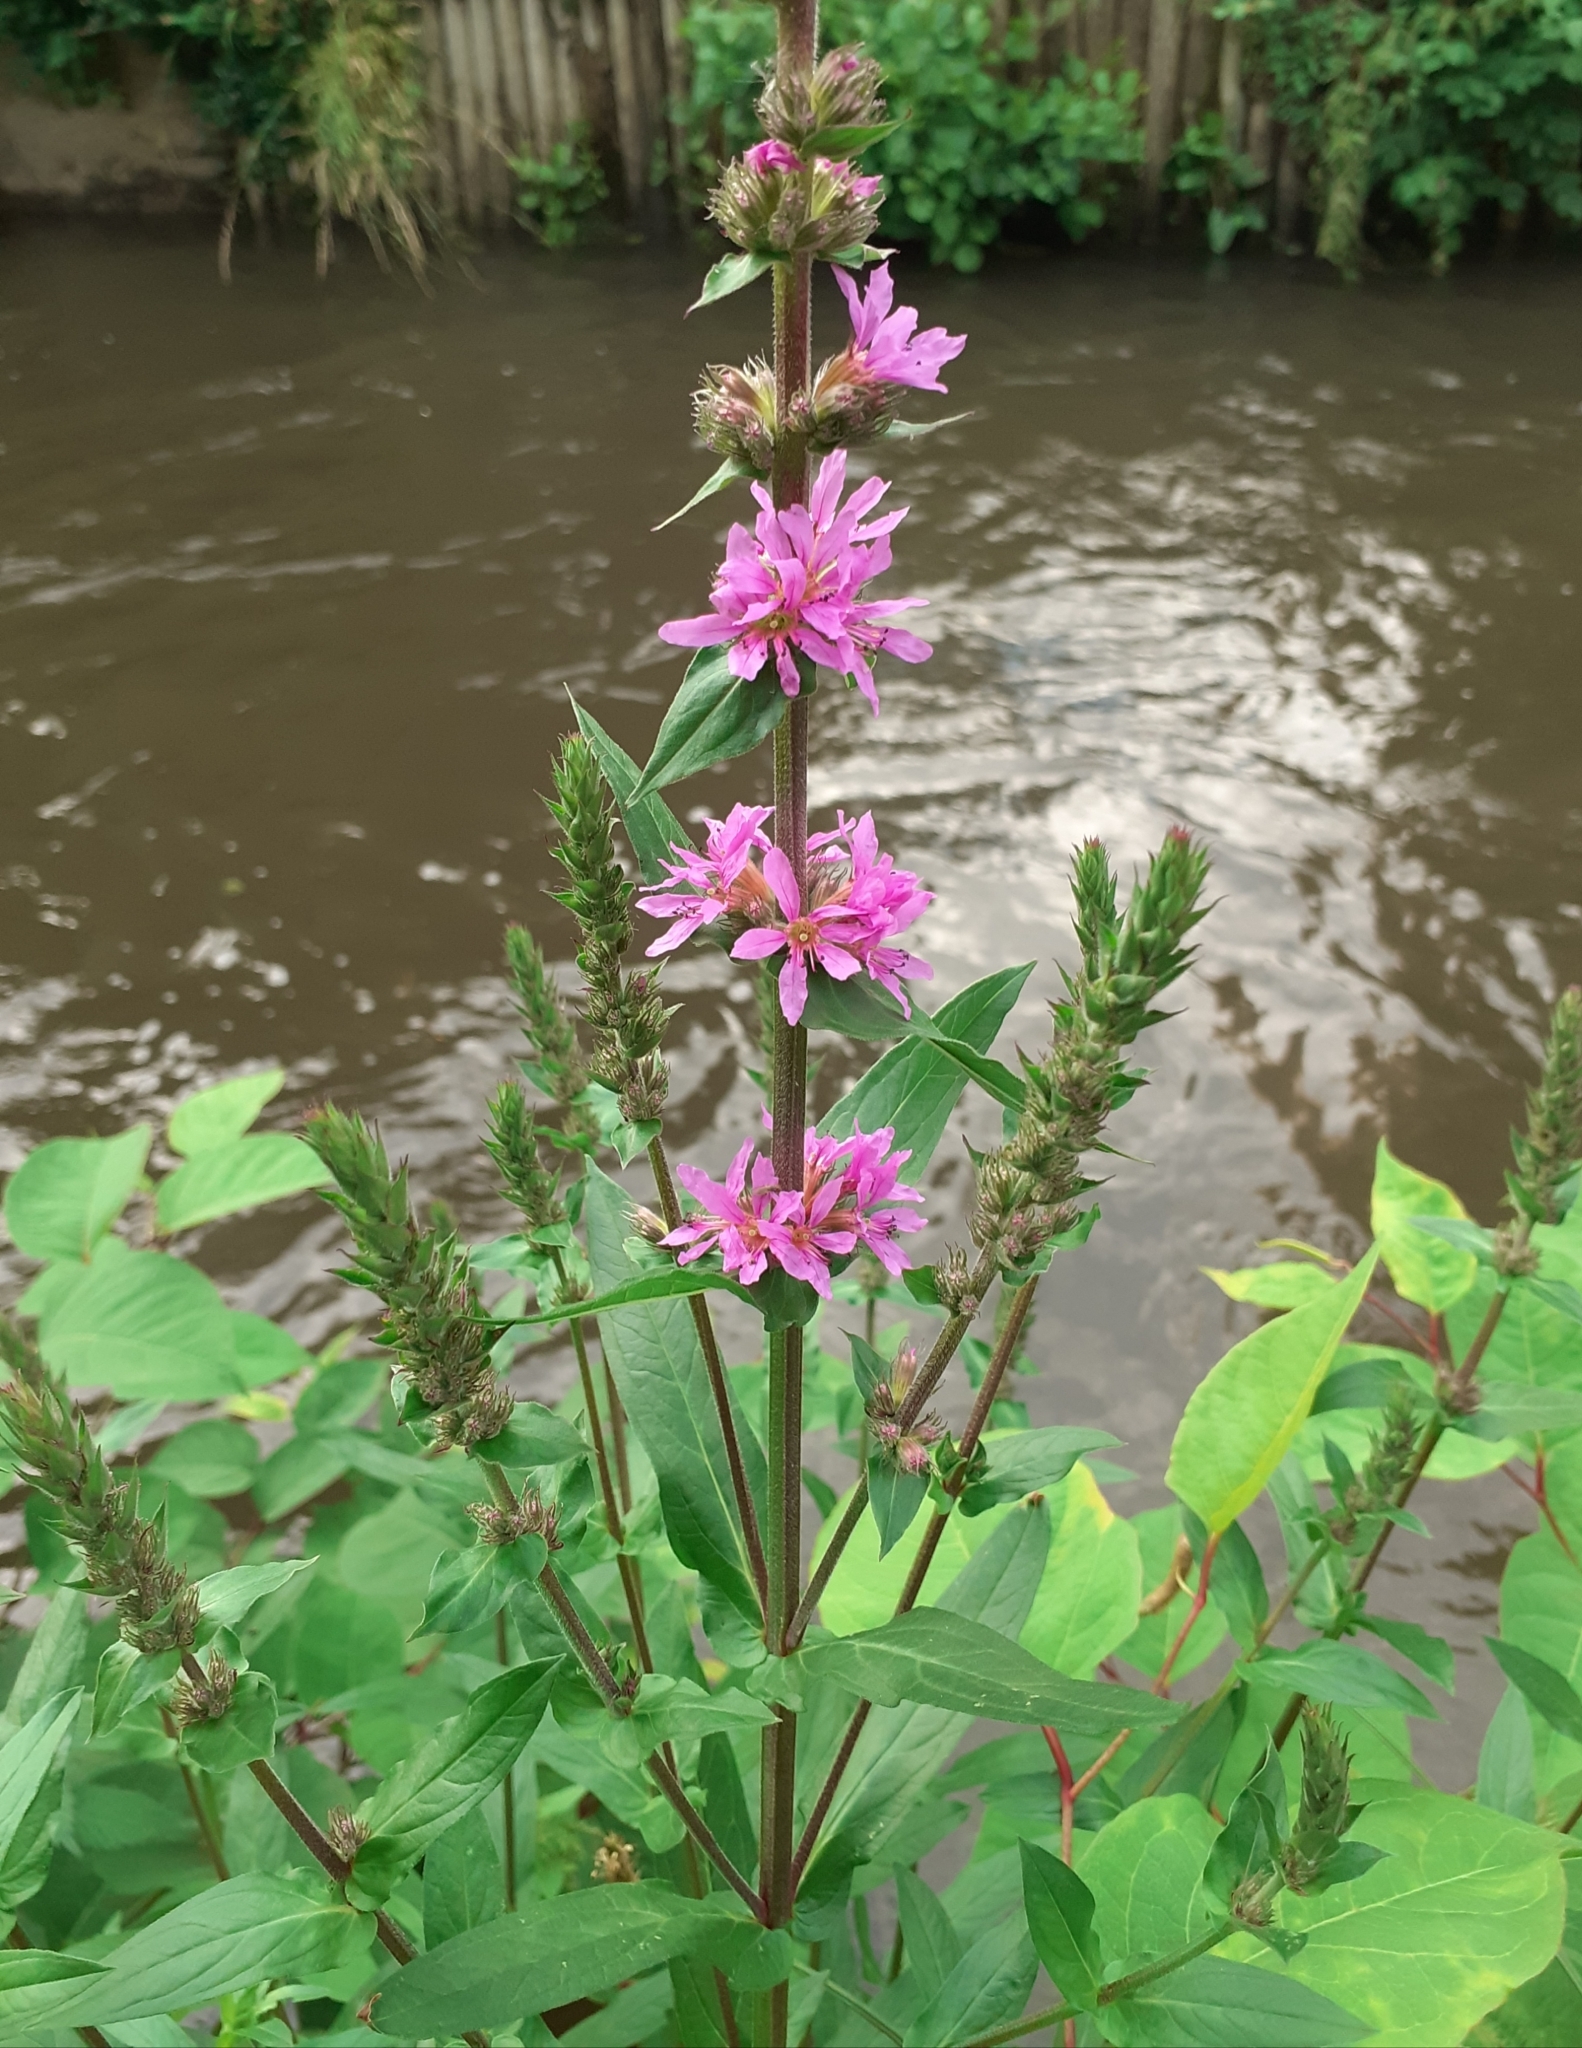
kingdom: Plantae
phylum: Tracheophyta
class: Magnoliopsida
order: Myrtales
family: Lythraceae
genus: Lythrum
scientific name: Lythrum salicaria
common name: Purple loosestrife
